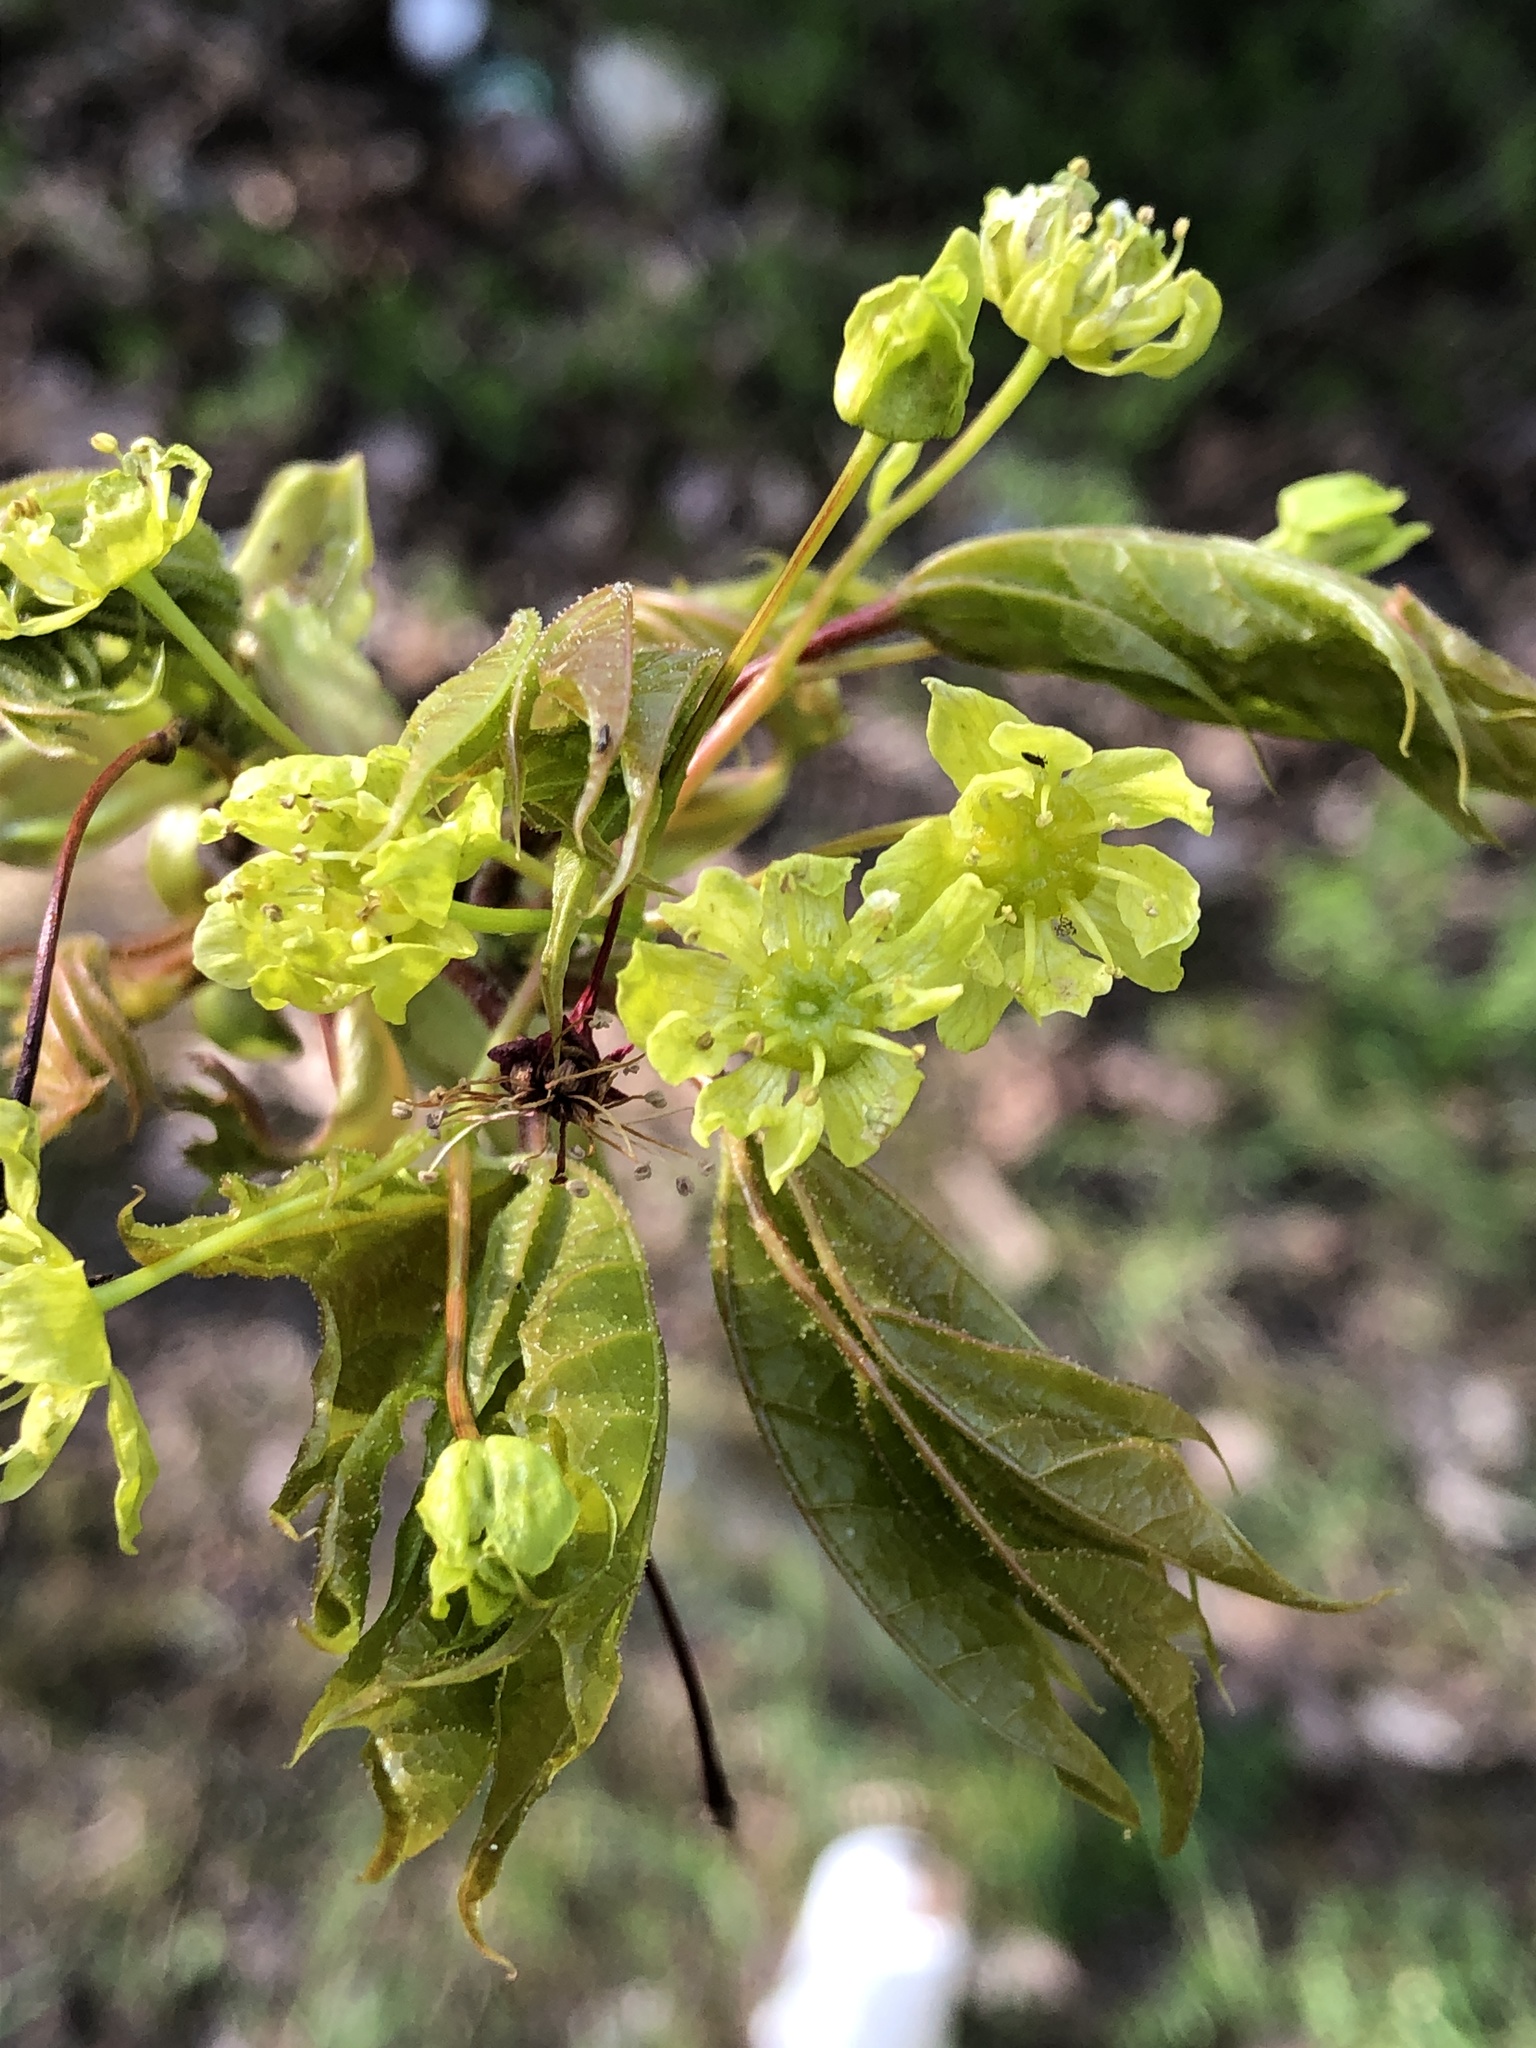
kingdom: Plantae
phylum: Tracheophyta
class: Magnoliopsida
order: Sapindales
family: Sapindaceae
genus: Acer
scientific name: Acer platanoides
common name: Norway maple
